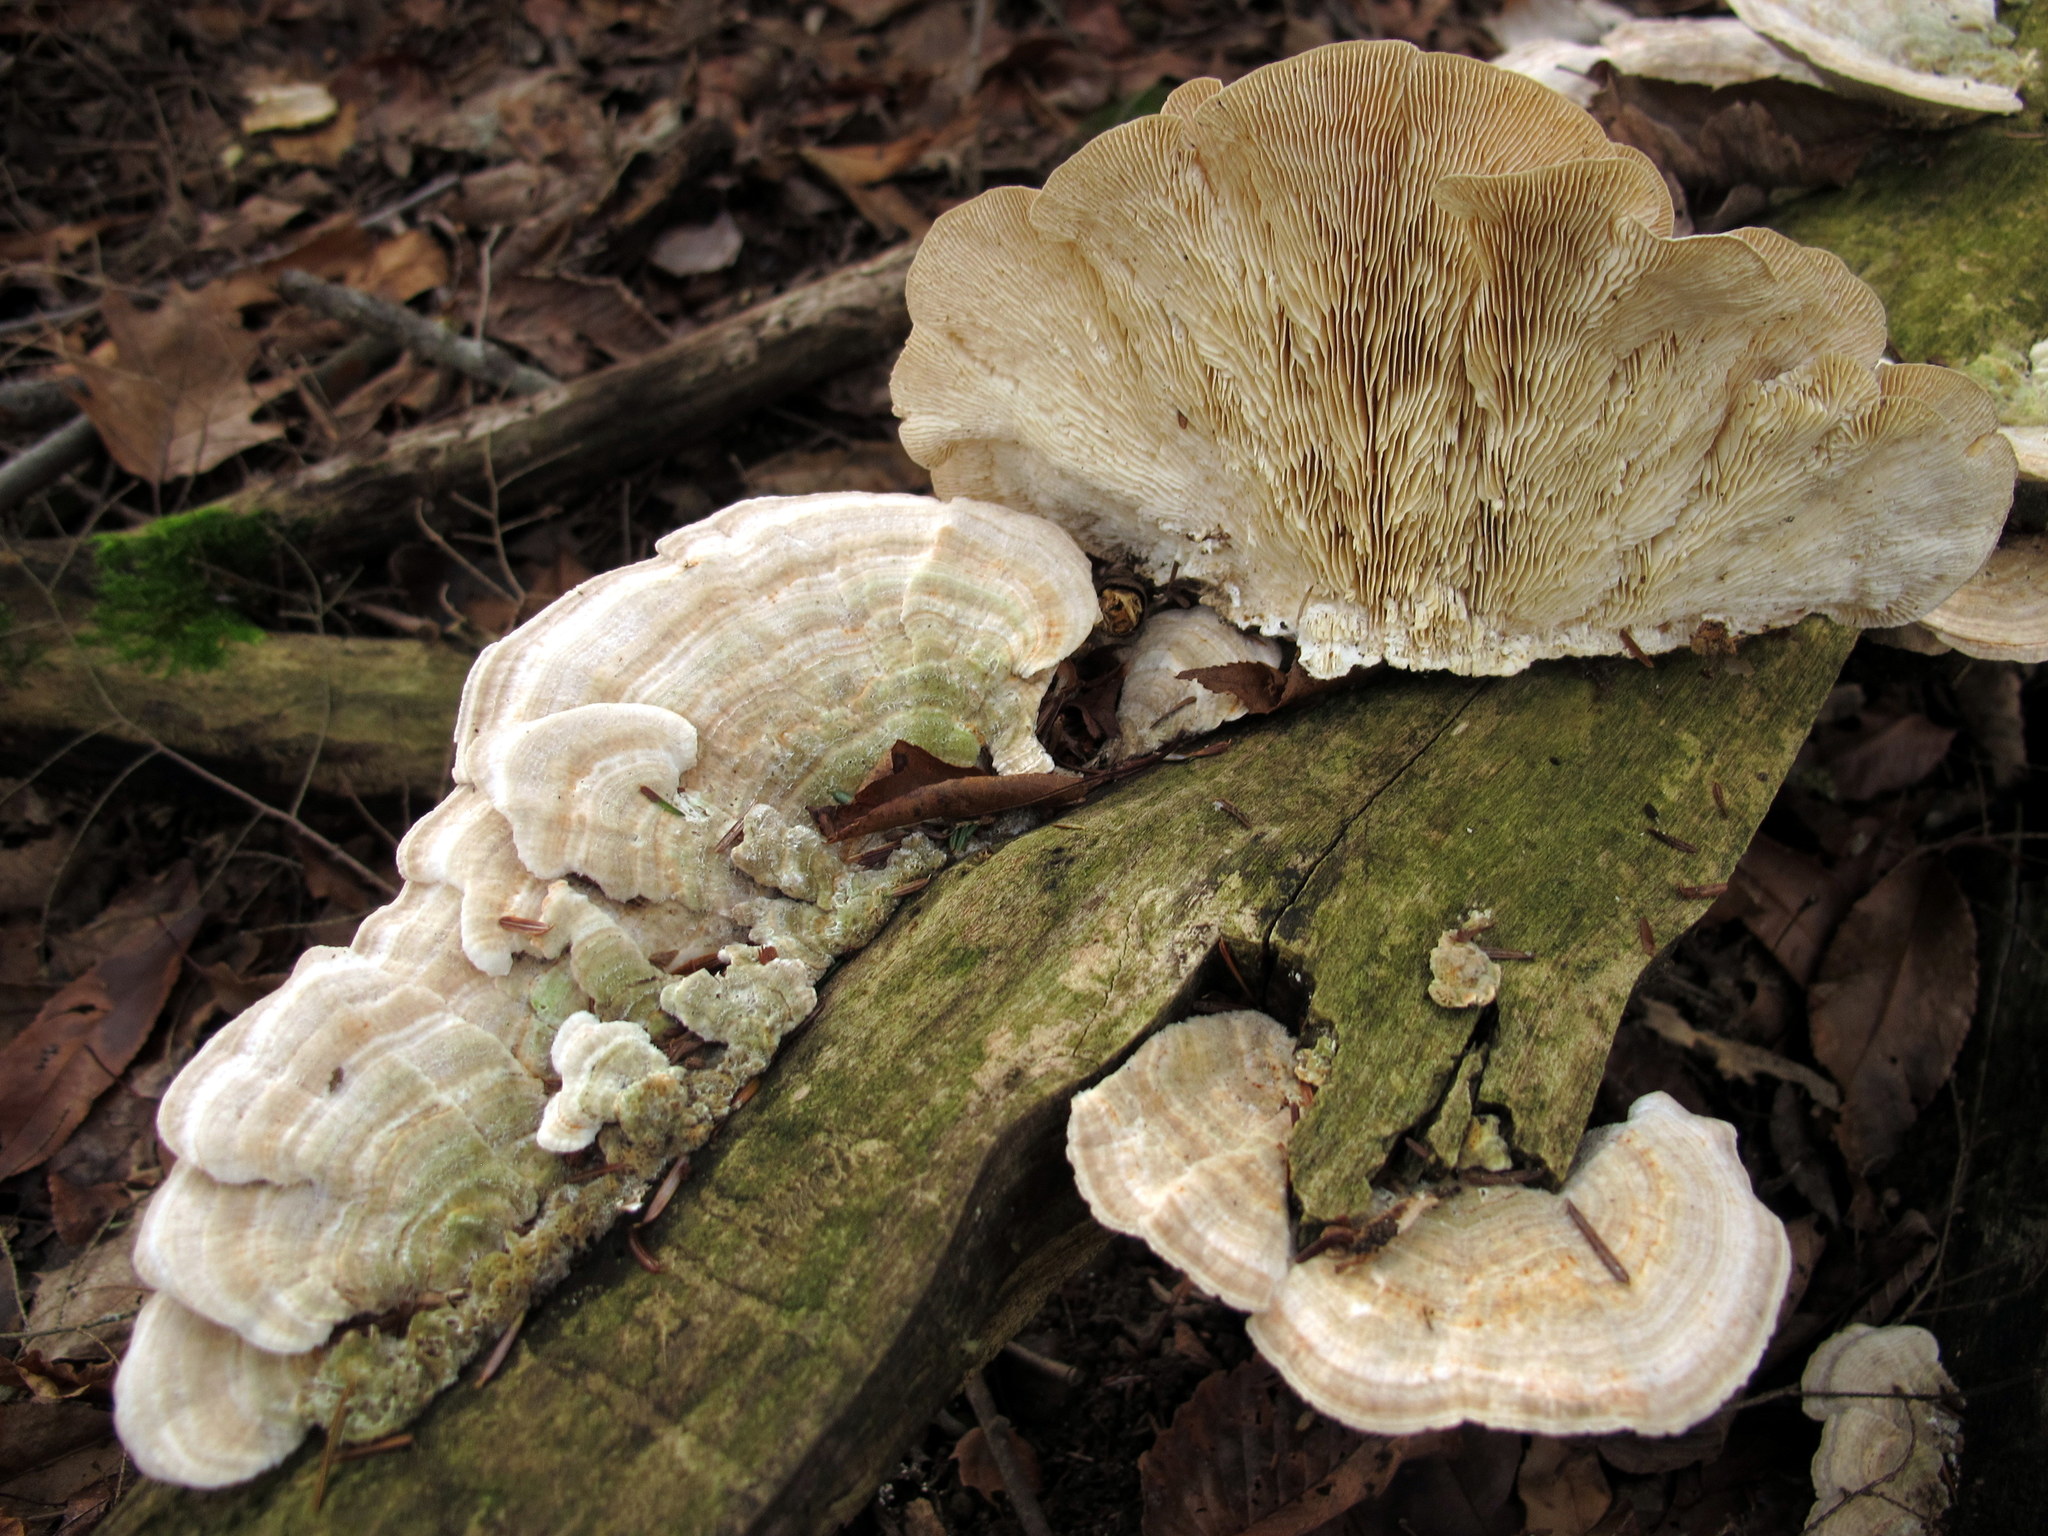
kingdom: Fungi
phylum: Basidiomycota
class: Agaricomycetes
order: Polyporales
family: Polyporaceae
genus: Lenzites
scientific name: Lenzites betulinus
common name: Birch mazegill
